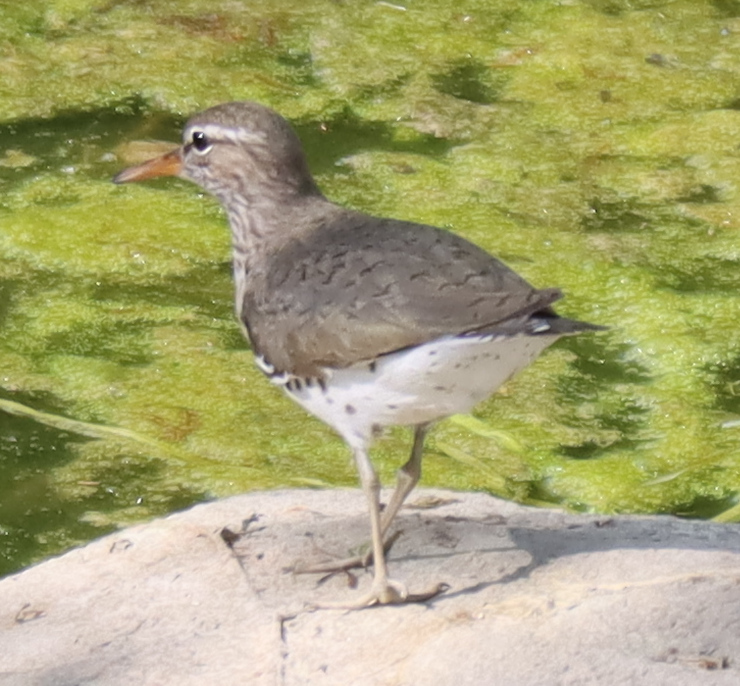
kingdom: Animalia
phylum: Chordata
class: Aves
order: Charadriiformes
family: Scolopacidae
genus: Actitis
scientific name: Actitis macularius
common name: Spotted sandpiper
